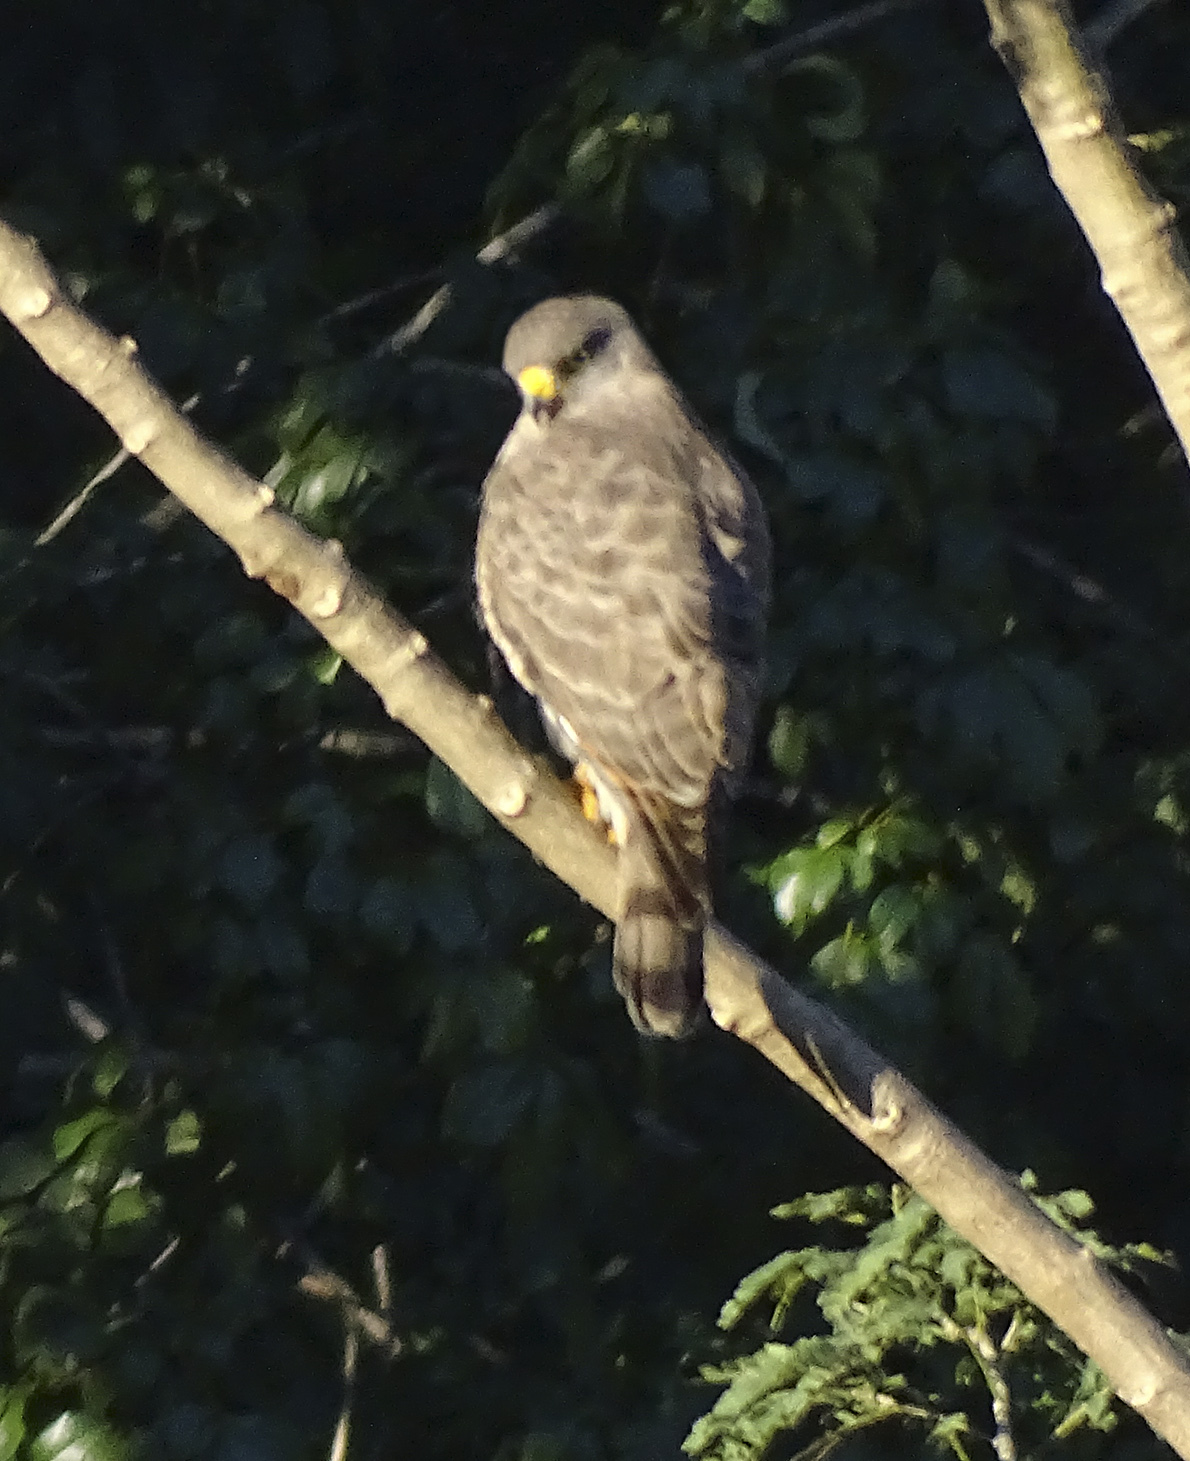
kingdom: Animalia
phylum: Chordata
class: Aves
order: Accipitriformes
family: Accipitridae
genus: Rupornis
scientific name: Rupornis magnirostris
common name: Roadside hawk
